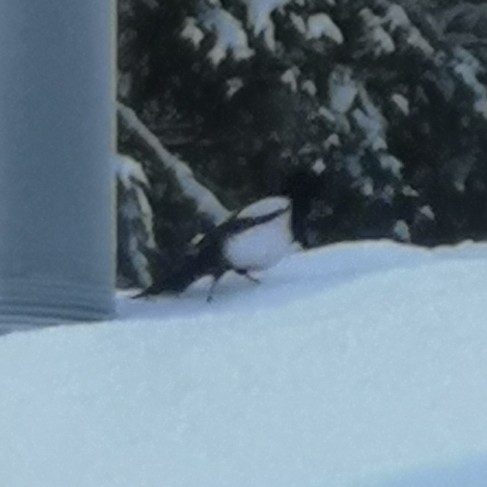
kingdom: Animalia
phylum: Chordata
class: Aves
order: Passeriformes
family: Corvidae
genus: Pica
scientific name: Pica pica
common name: Eurasian magpie
